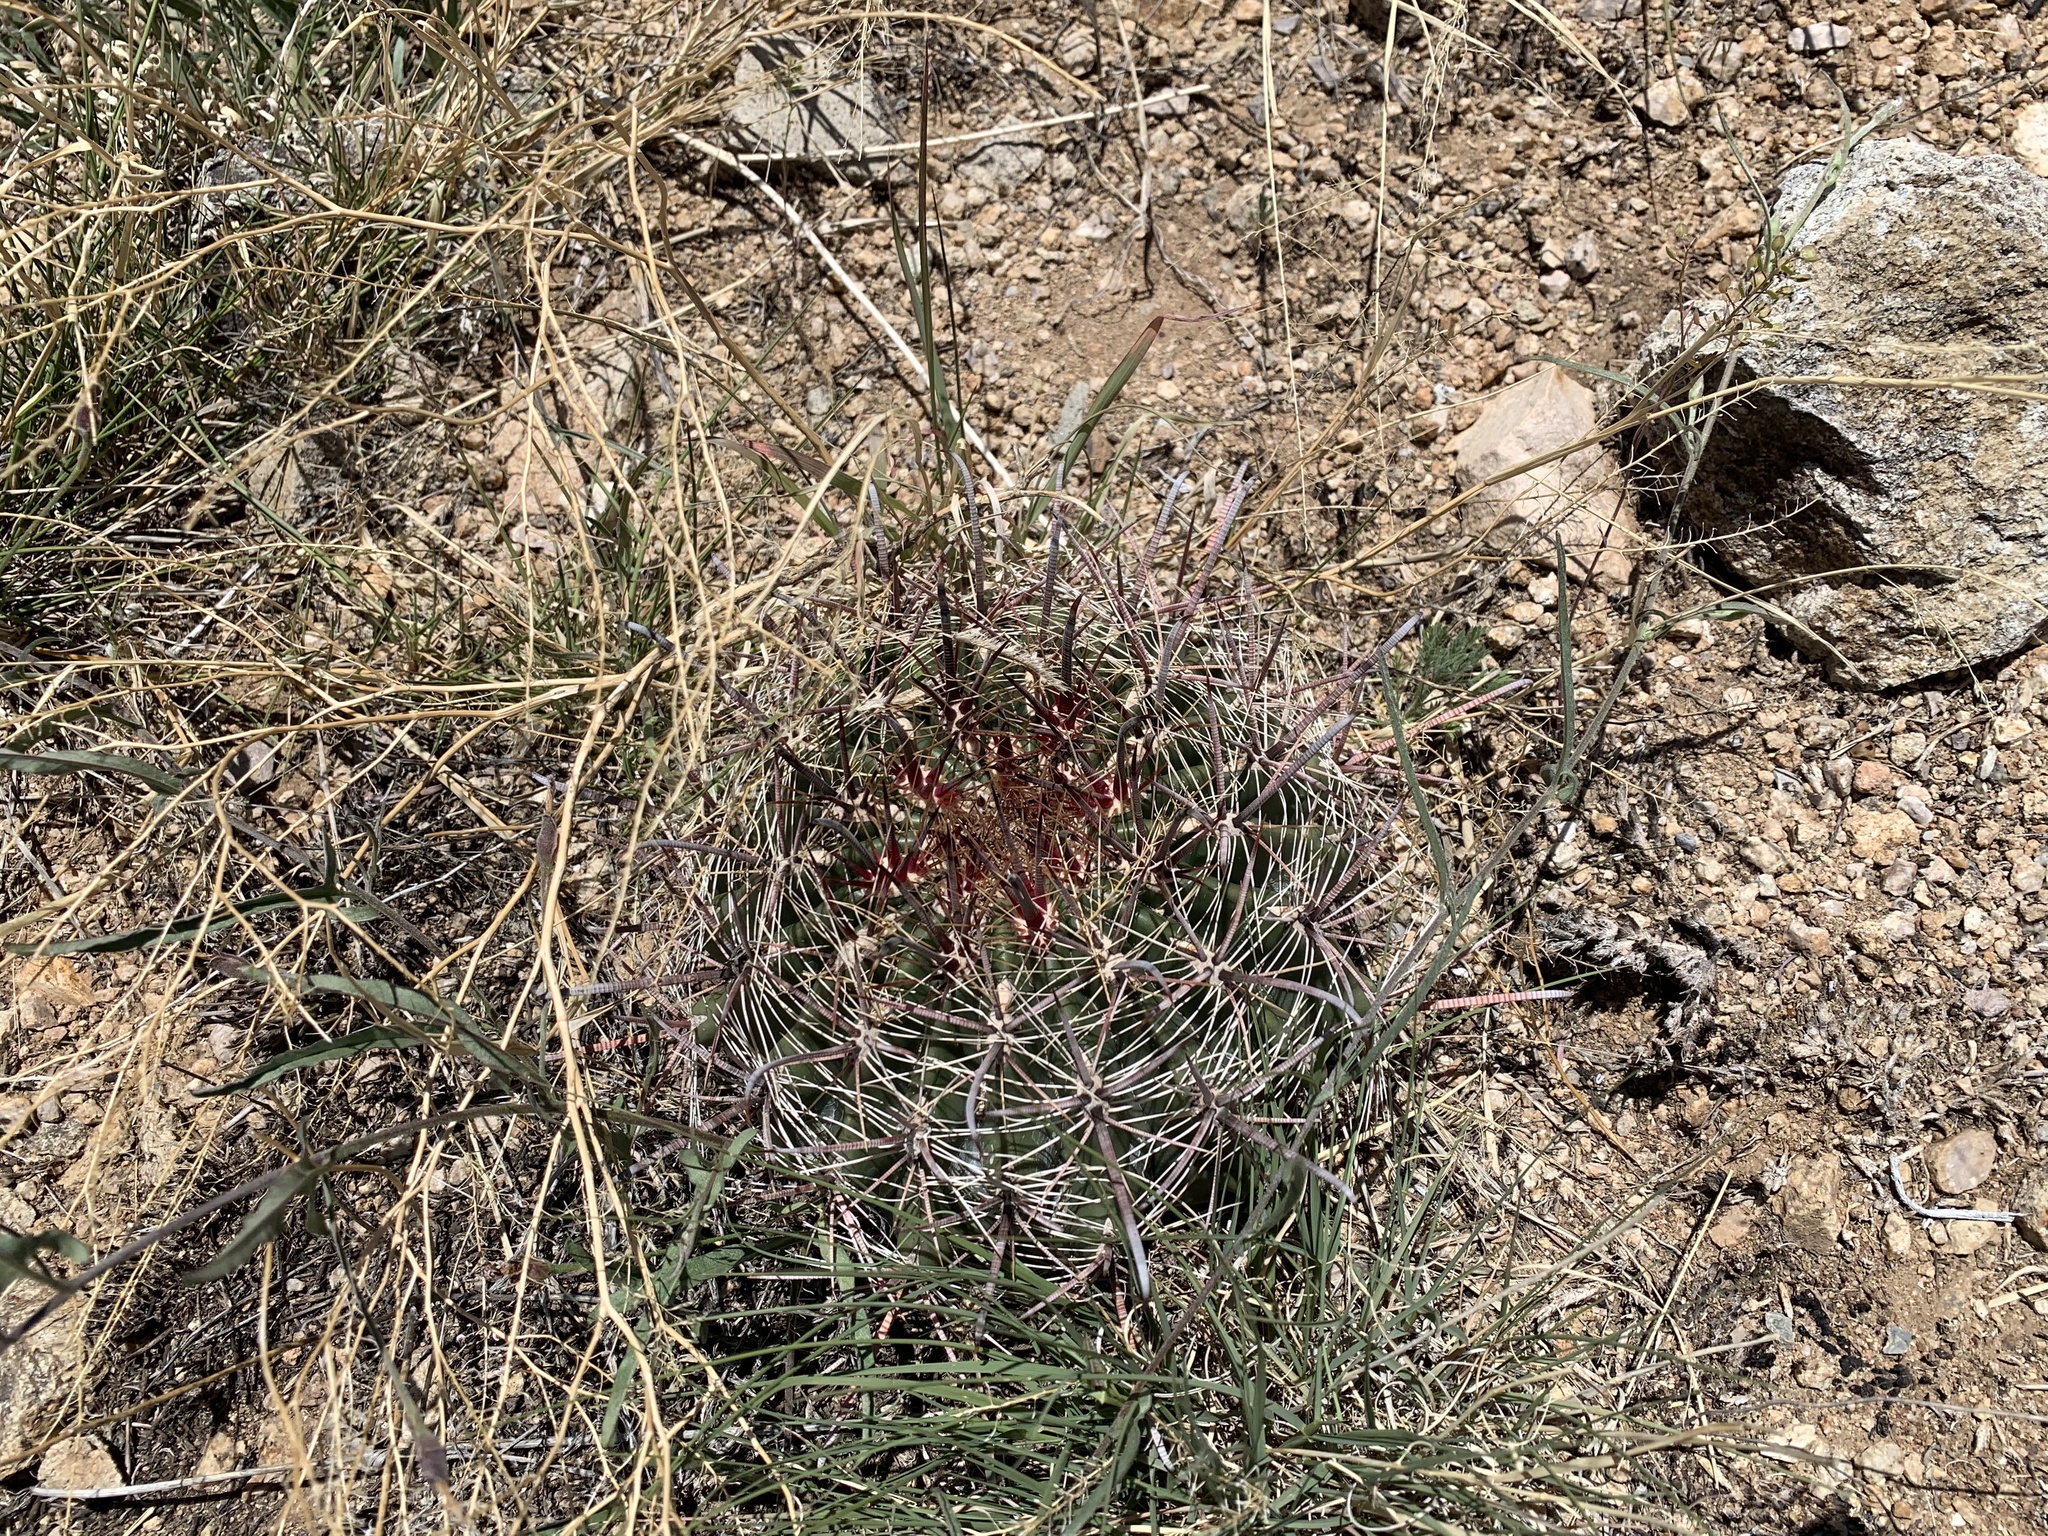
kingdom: Plantae
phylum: Tracheophyta
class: Magnoliopsida
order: Caryophyllales
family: Cactaceae
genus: Ferocactus
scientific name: Ferocactus wislizeni
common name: Candy barrel cactus
